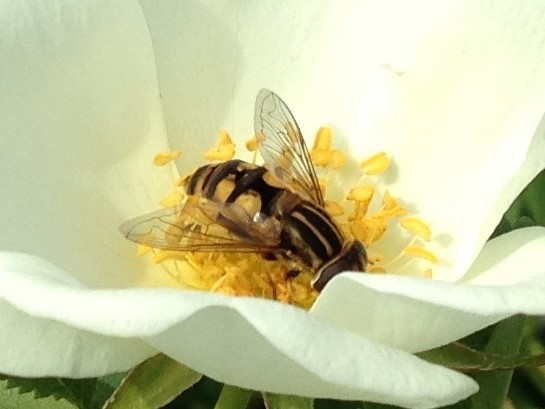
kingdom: Animalia
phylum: Arthropoda
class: Insecta
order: Diptera
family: Syrphidae
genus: Helophilus
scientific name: Helophilus latifrons
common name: Broad-headed marsh fly
